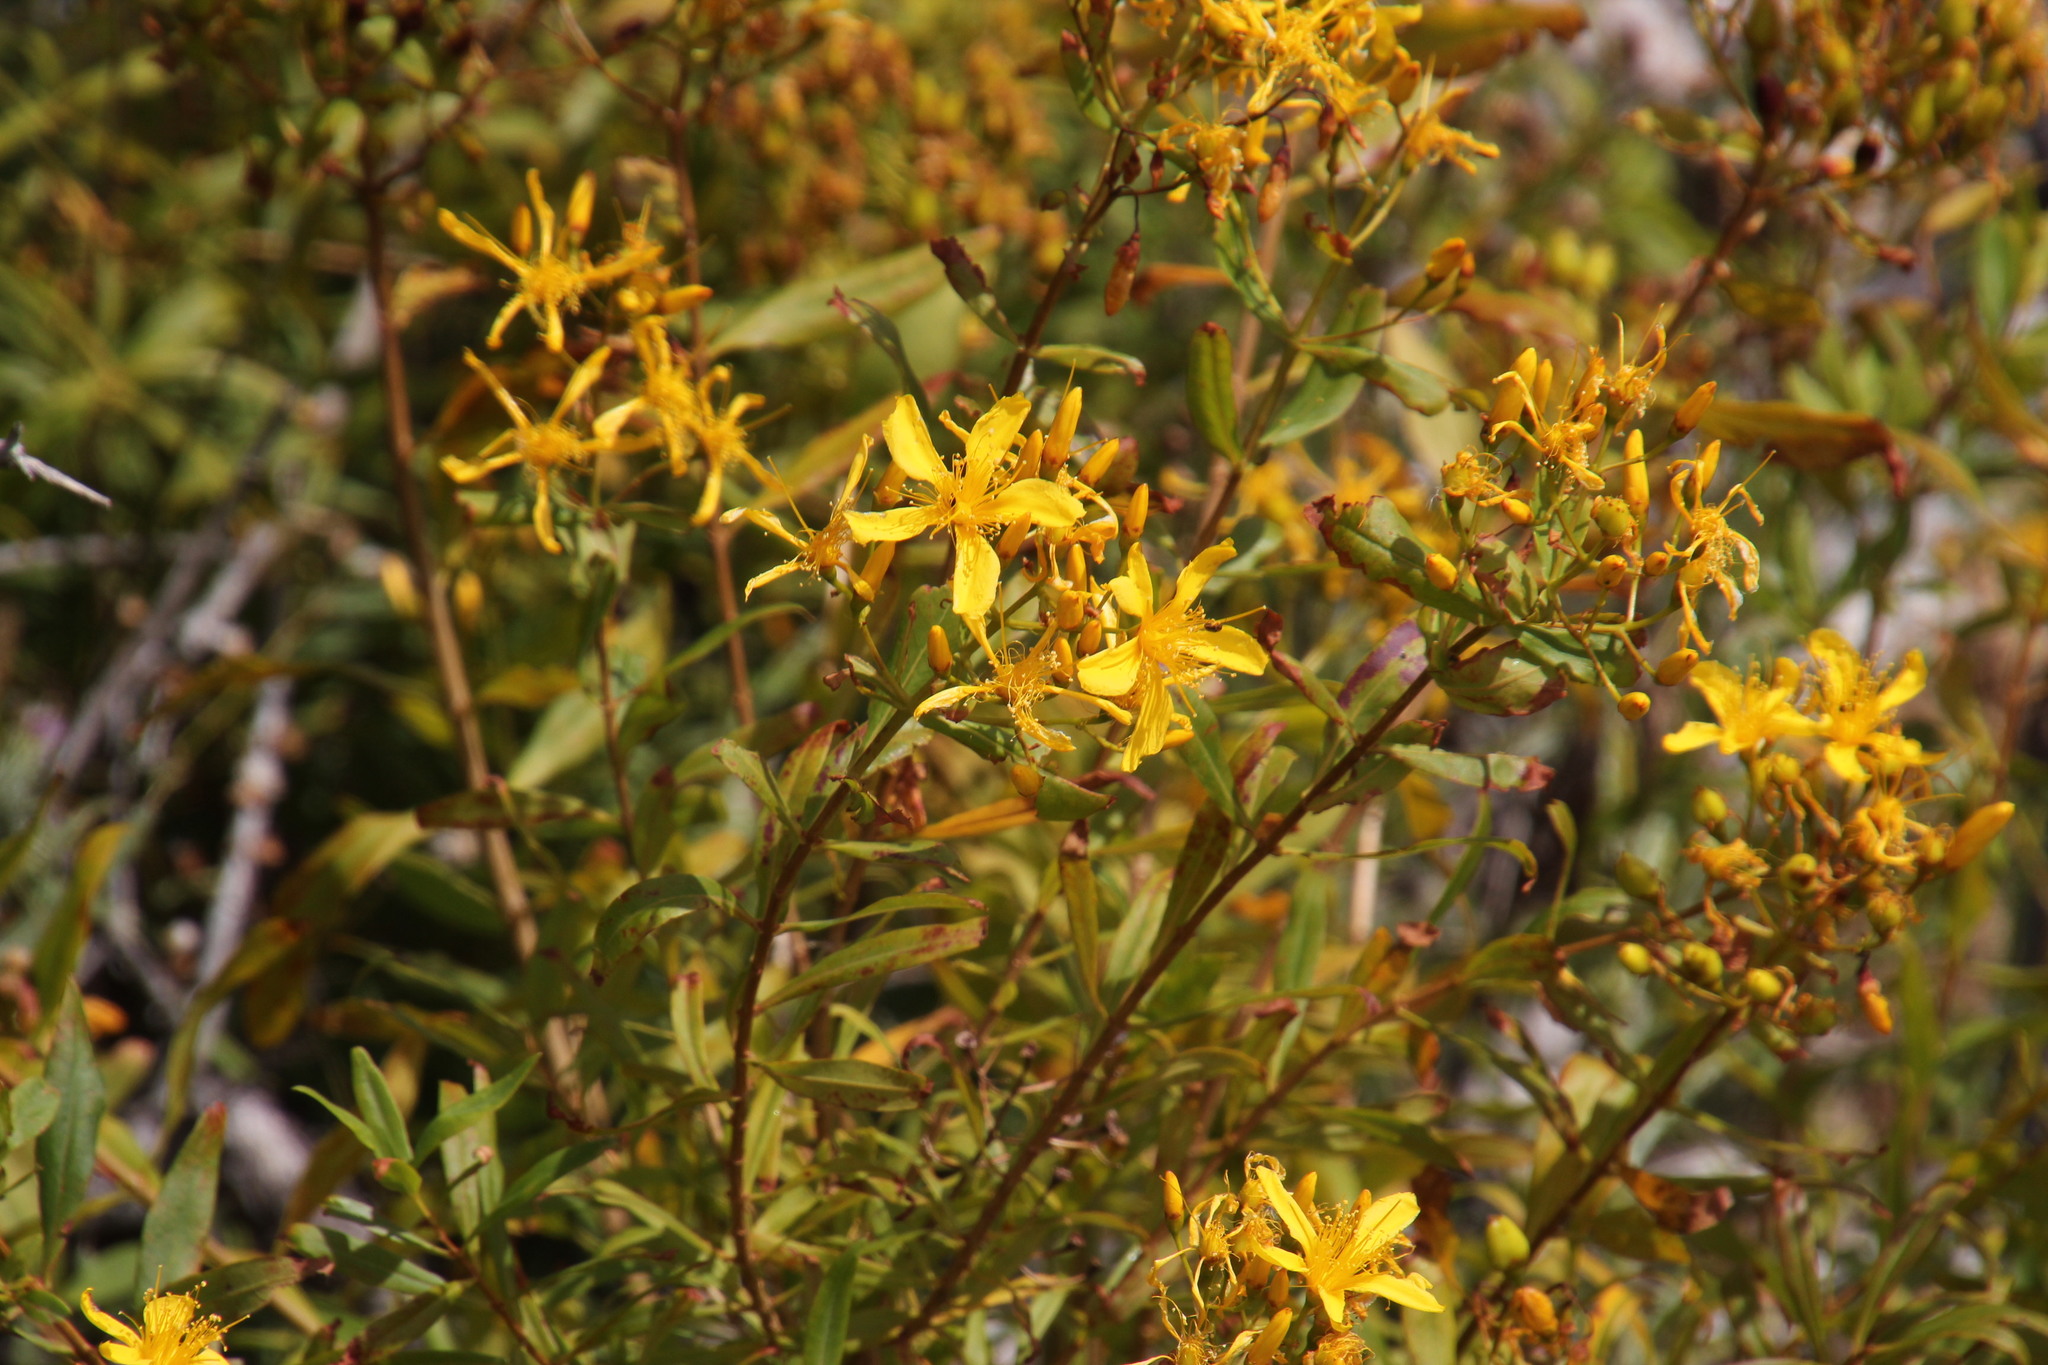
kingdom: Plantae
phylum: Tracheophyta
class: Magnoliopsida
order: Malpighiales
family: Hypericaceae
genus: Hypericum
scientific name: Hypericum canariense
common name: Canary island st. johnswort
